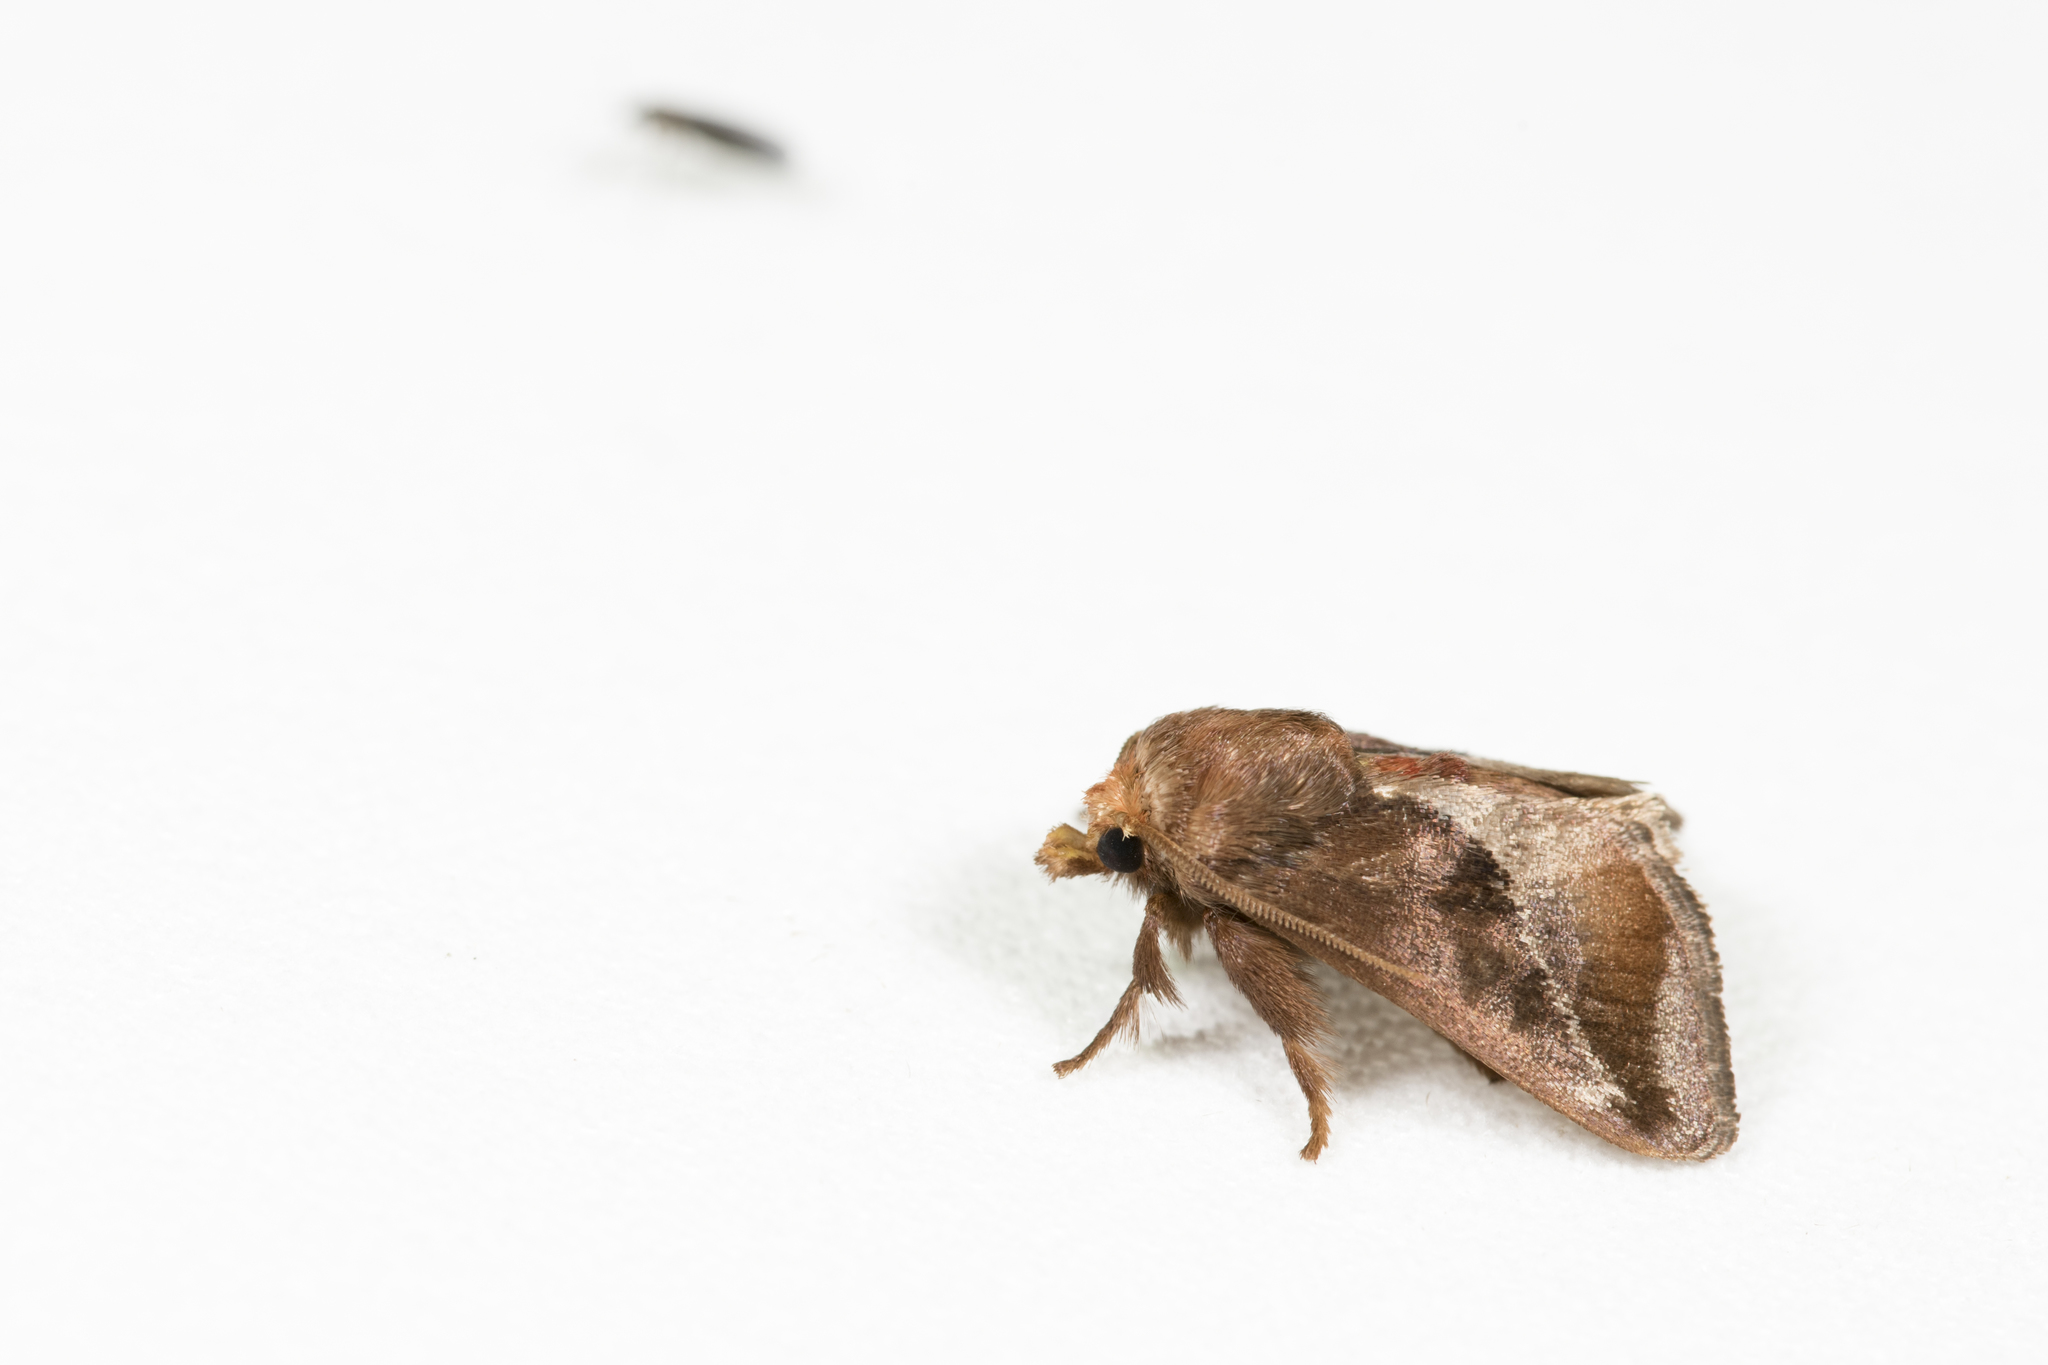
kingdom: Animalia
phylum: Arthropoda
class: Insecta
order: Lepidoptera
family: Limacodidae
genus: Vanlangia
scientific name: Vanlangia castanea
